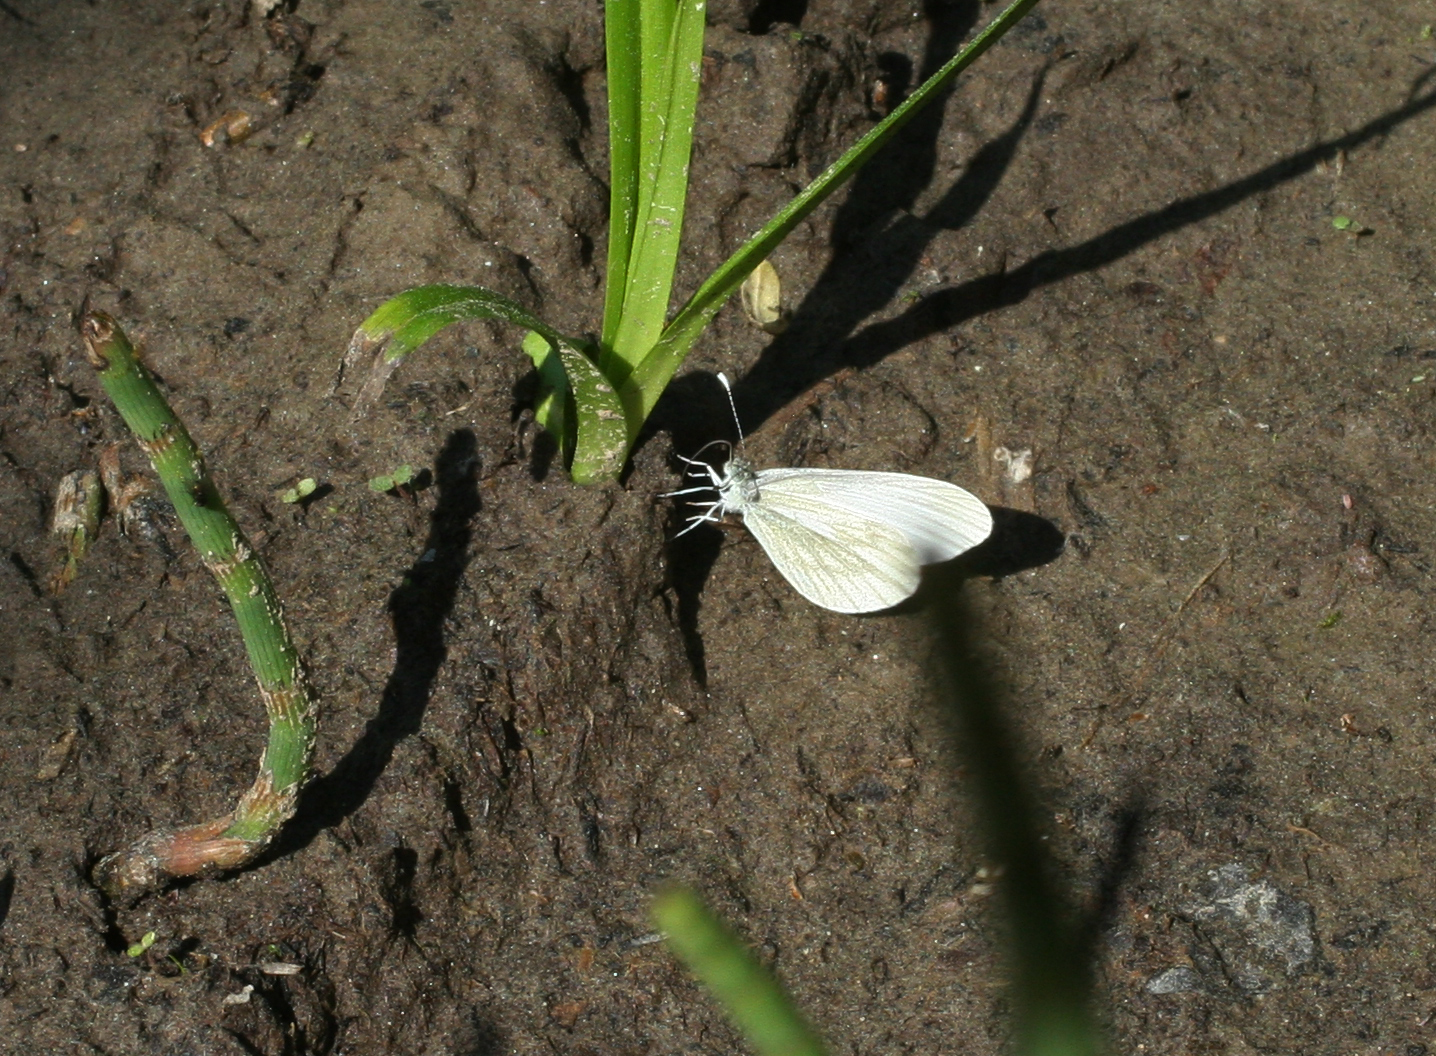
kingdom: Animalia
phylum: Arthropoda
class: Insecta
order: Lepidoptera
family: Pieridae
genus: Leptidea
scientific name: Leptidea amurensis
